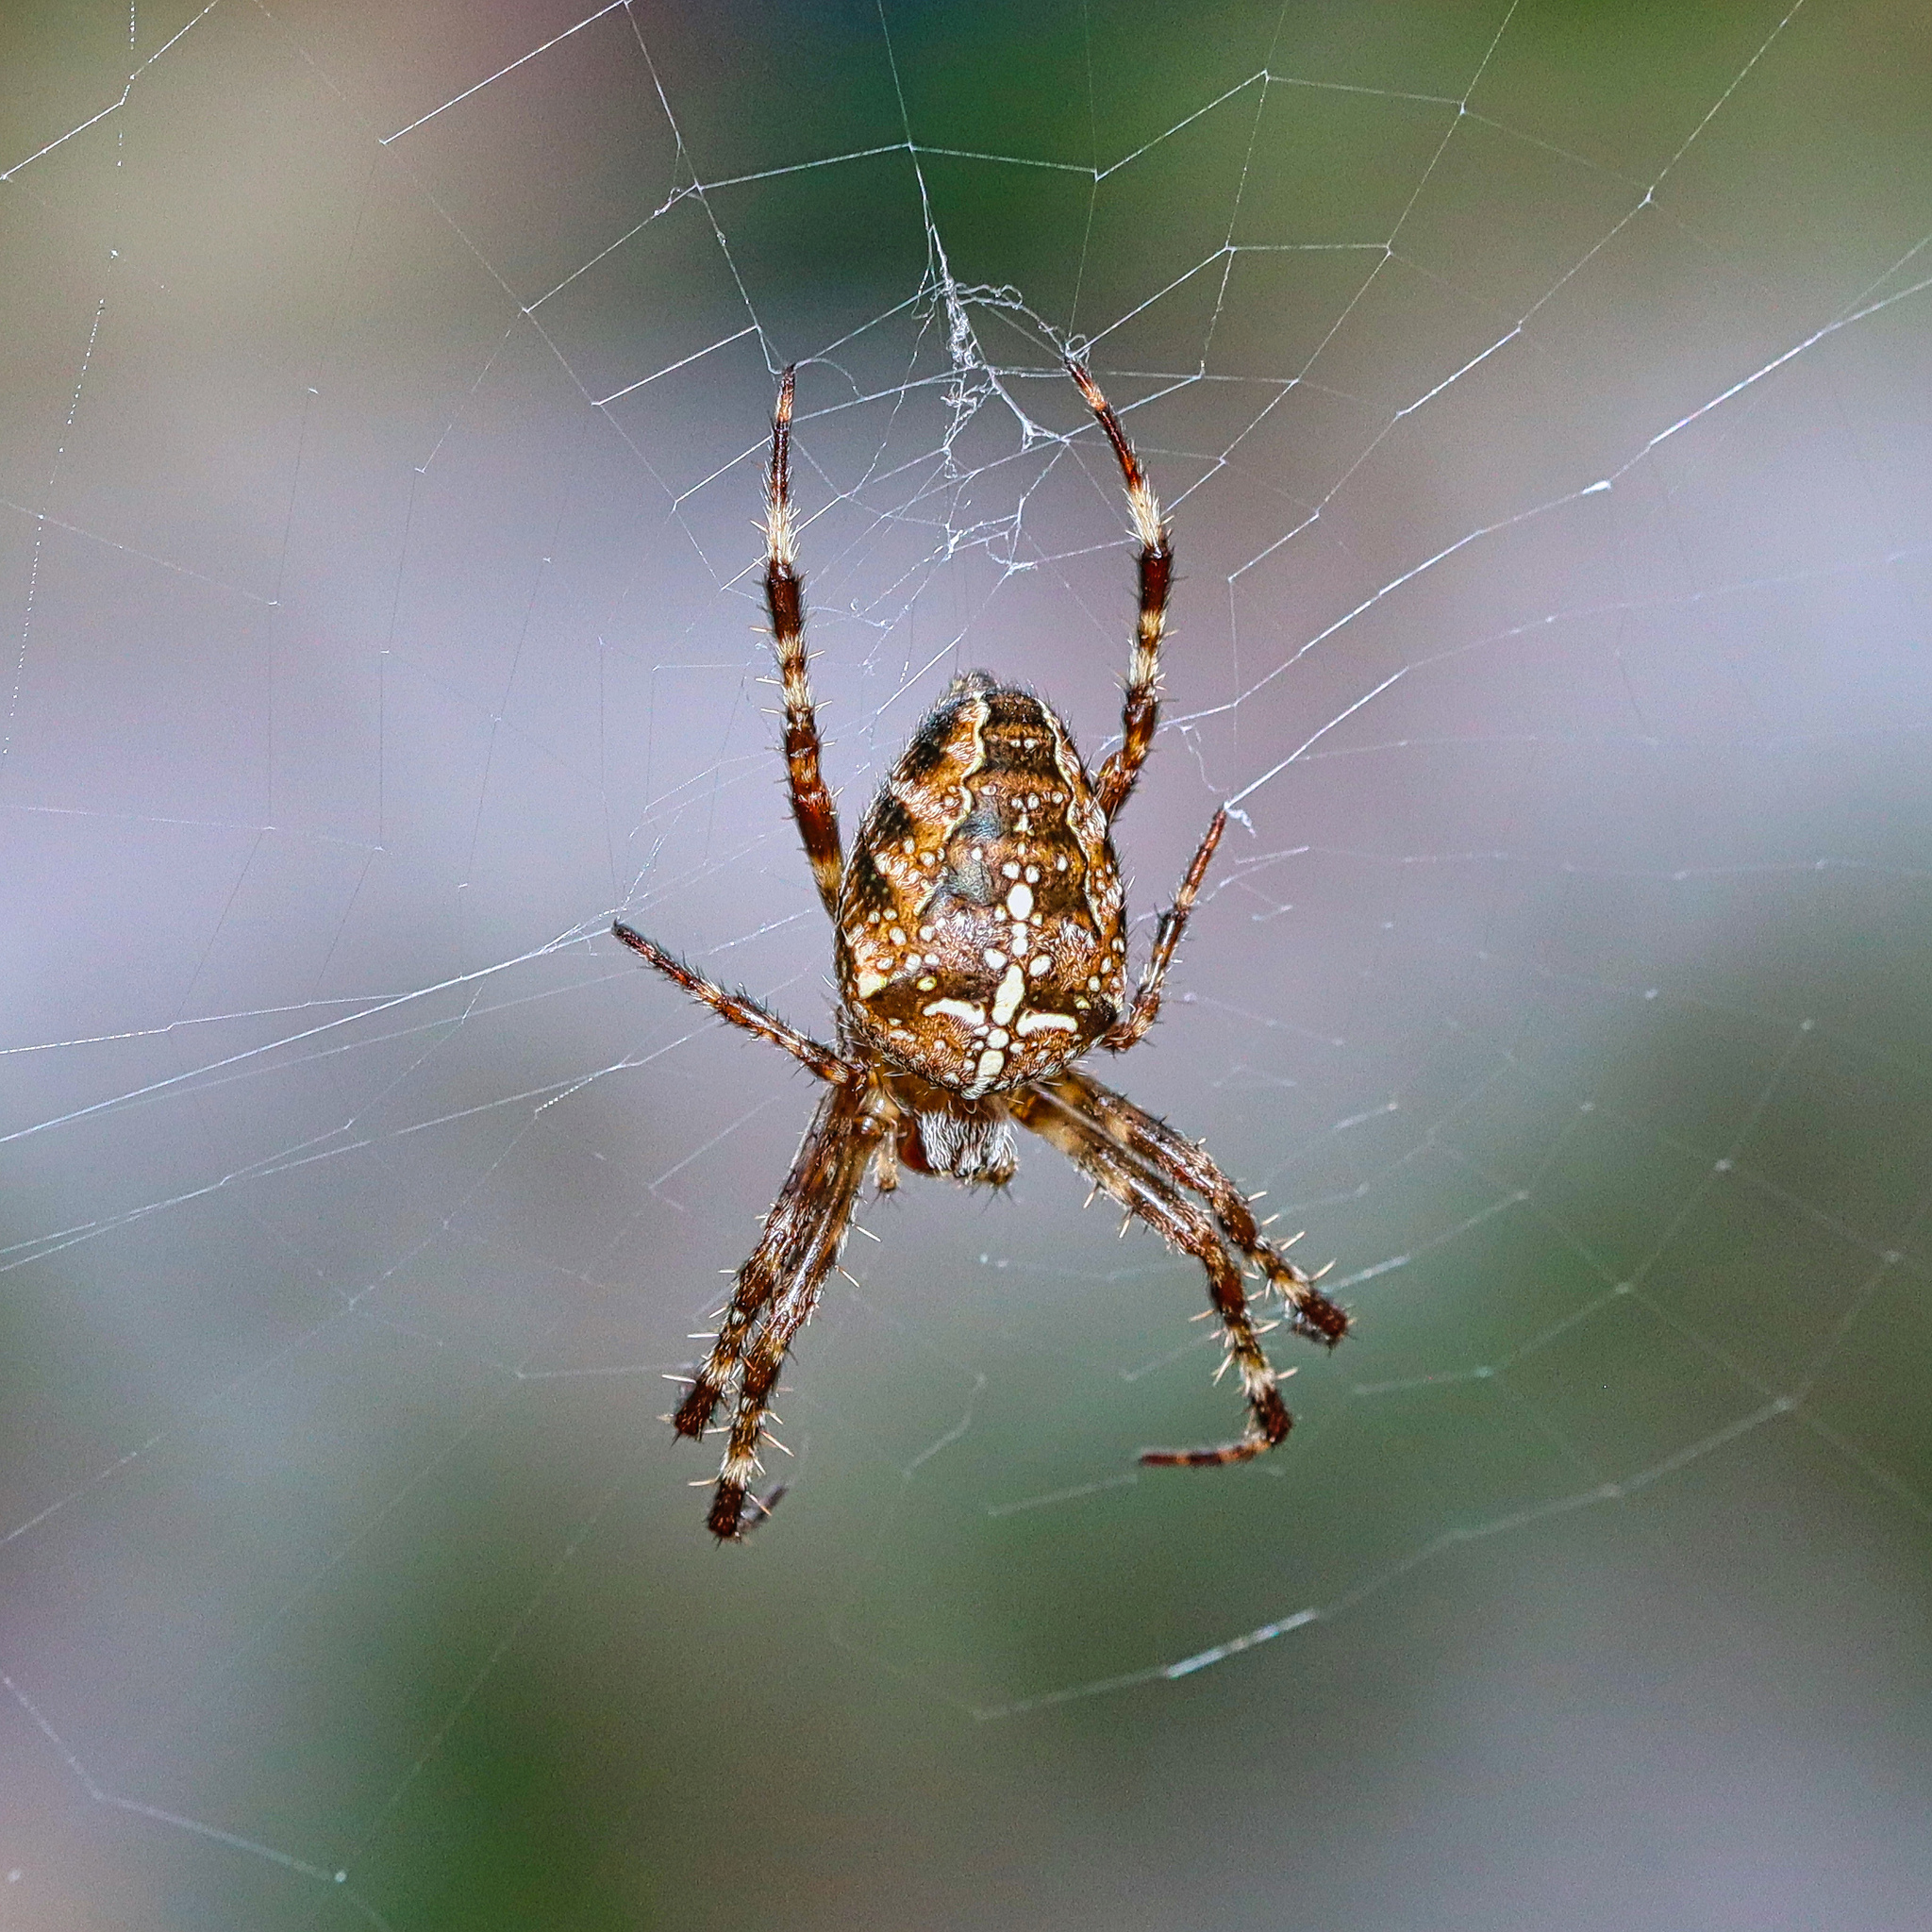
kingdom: Animalia
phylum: Arthropoda
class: Arachnida
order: Araneae
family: Araneidae
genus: Araneus
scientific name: Araneus diadematus
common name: Cross orbweaver
